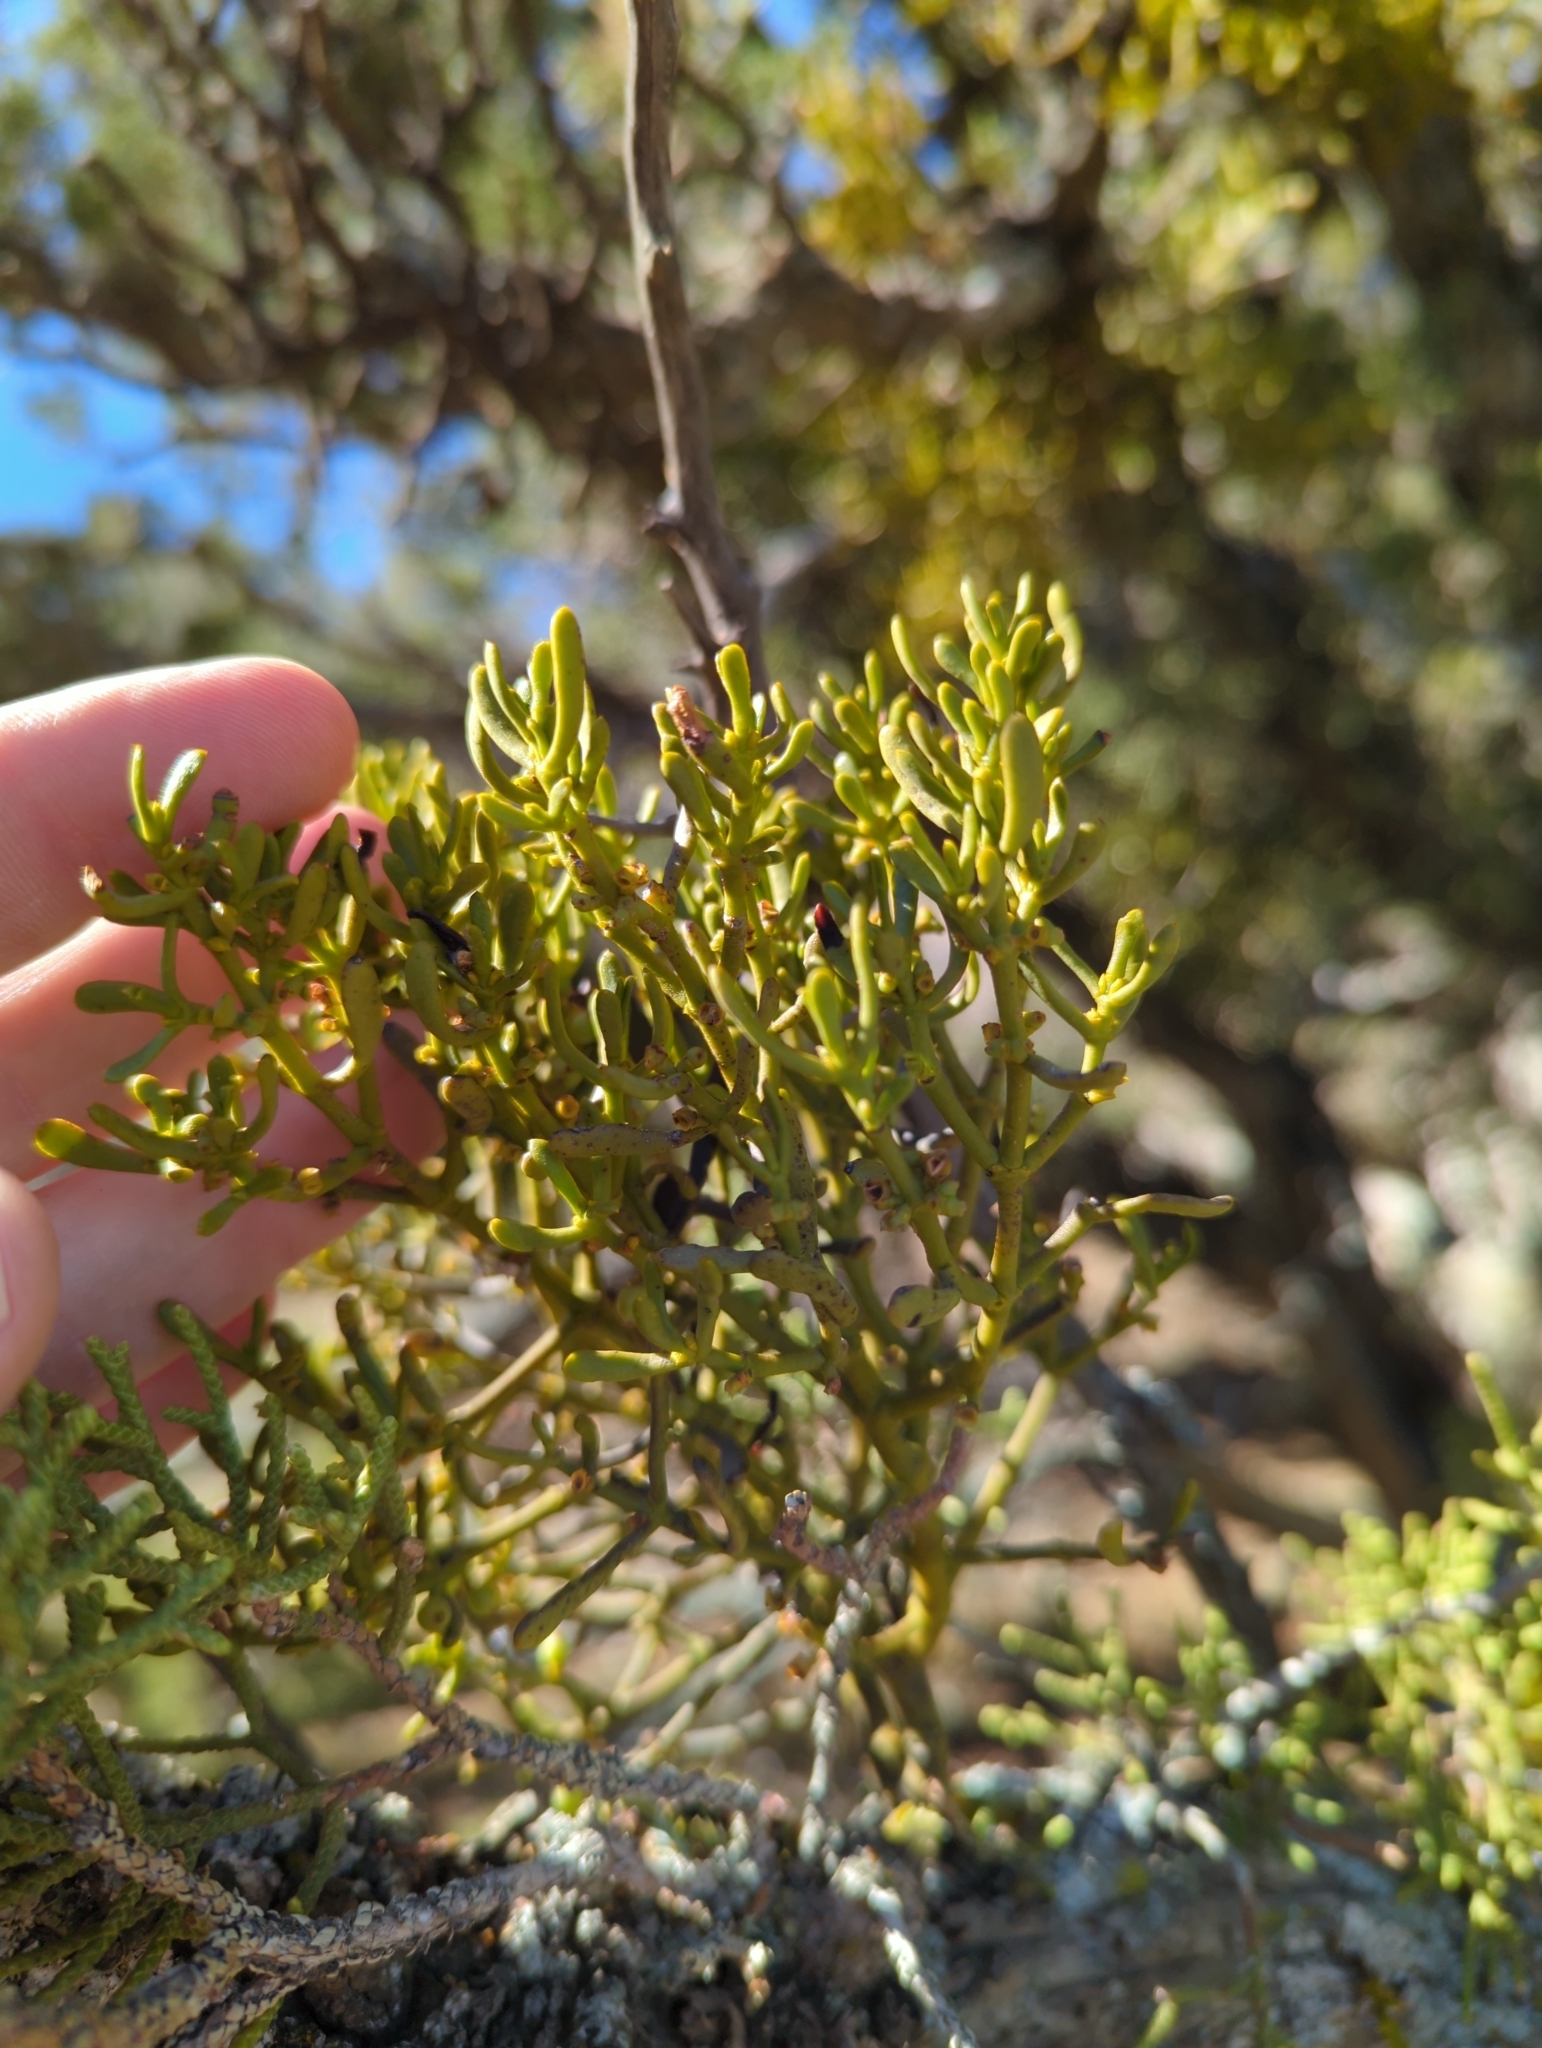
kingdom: Plantae
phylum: Tracheophyta
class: Magnoliopsida
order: Santalales
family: Viscaceae
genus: Phoradendron
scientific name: Phoradendron bolleanum
